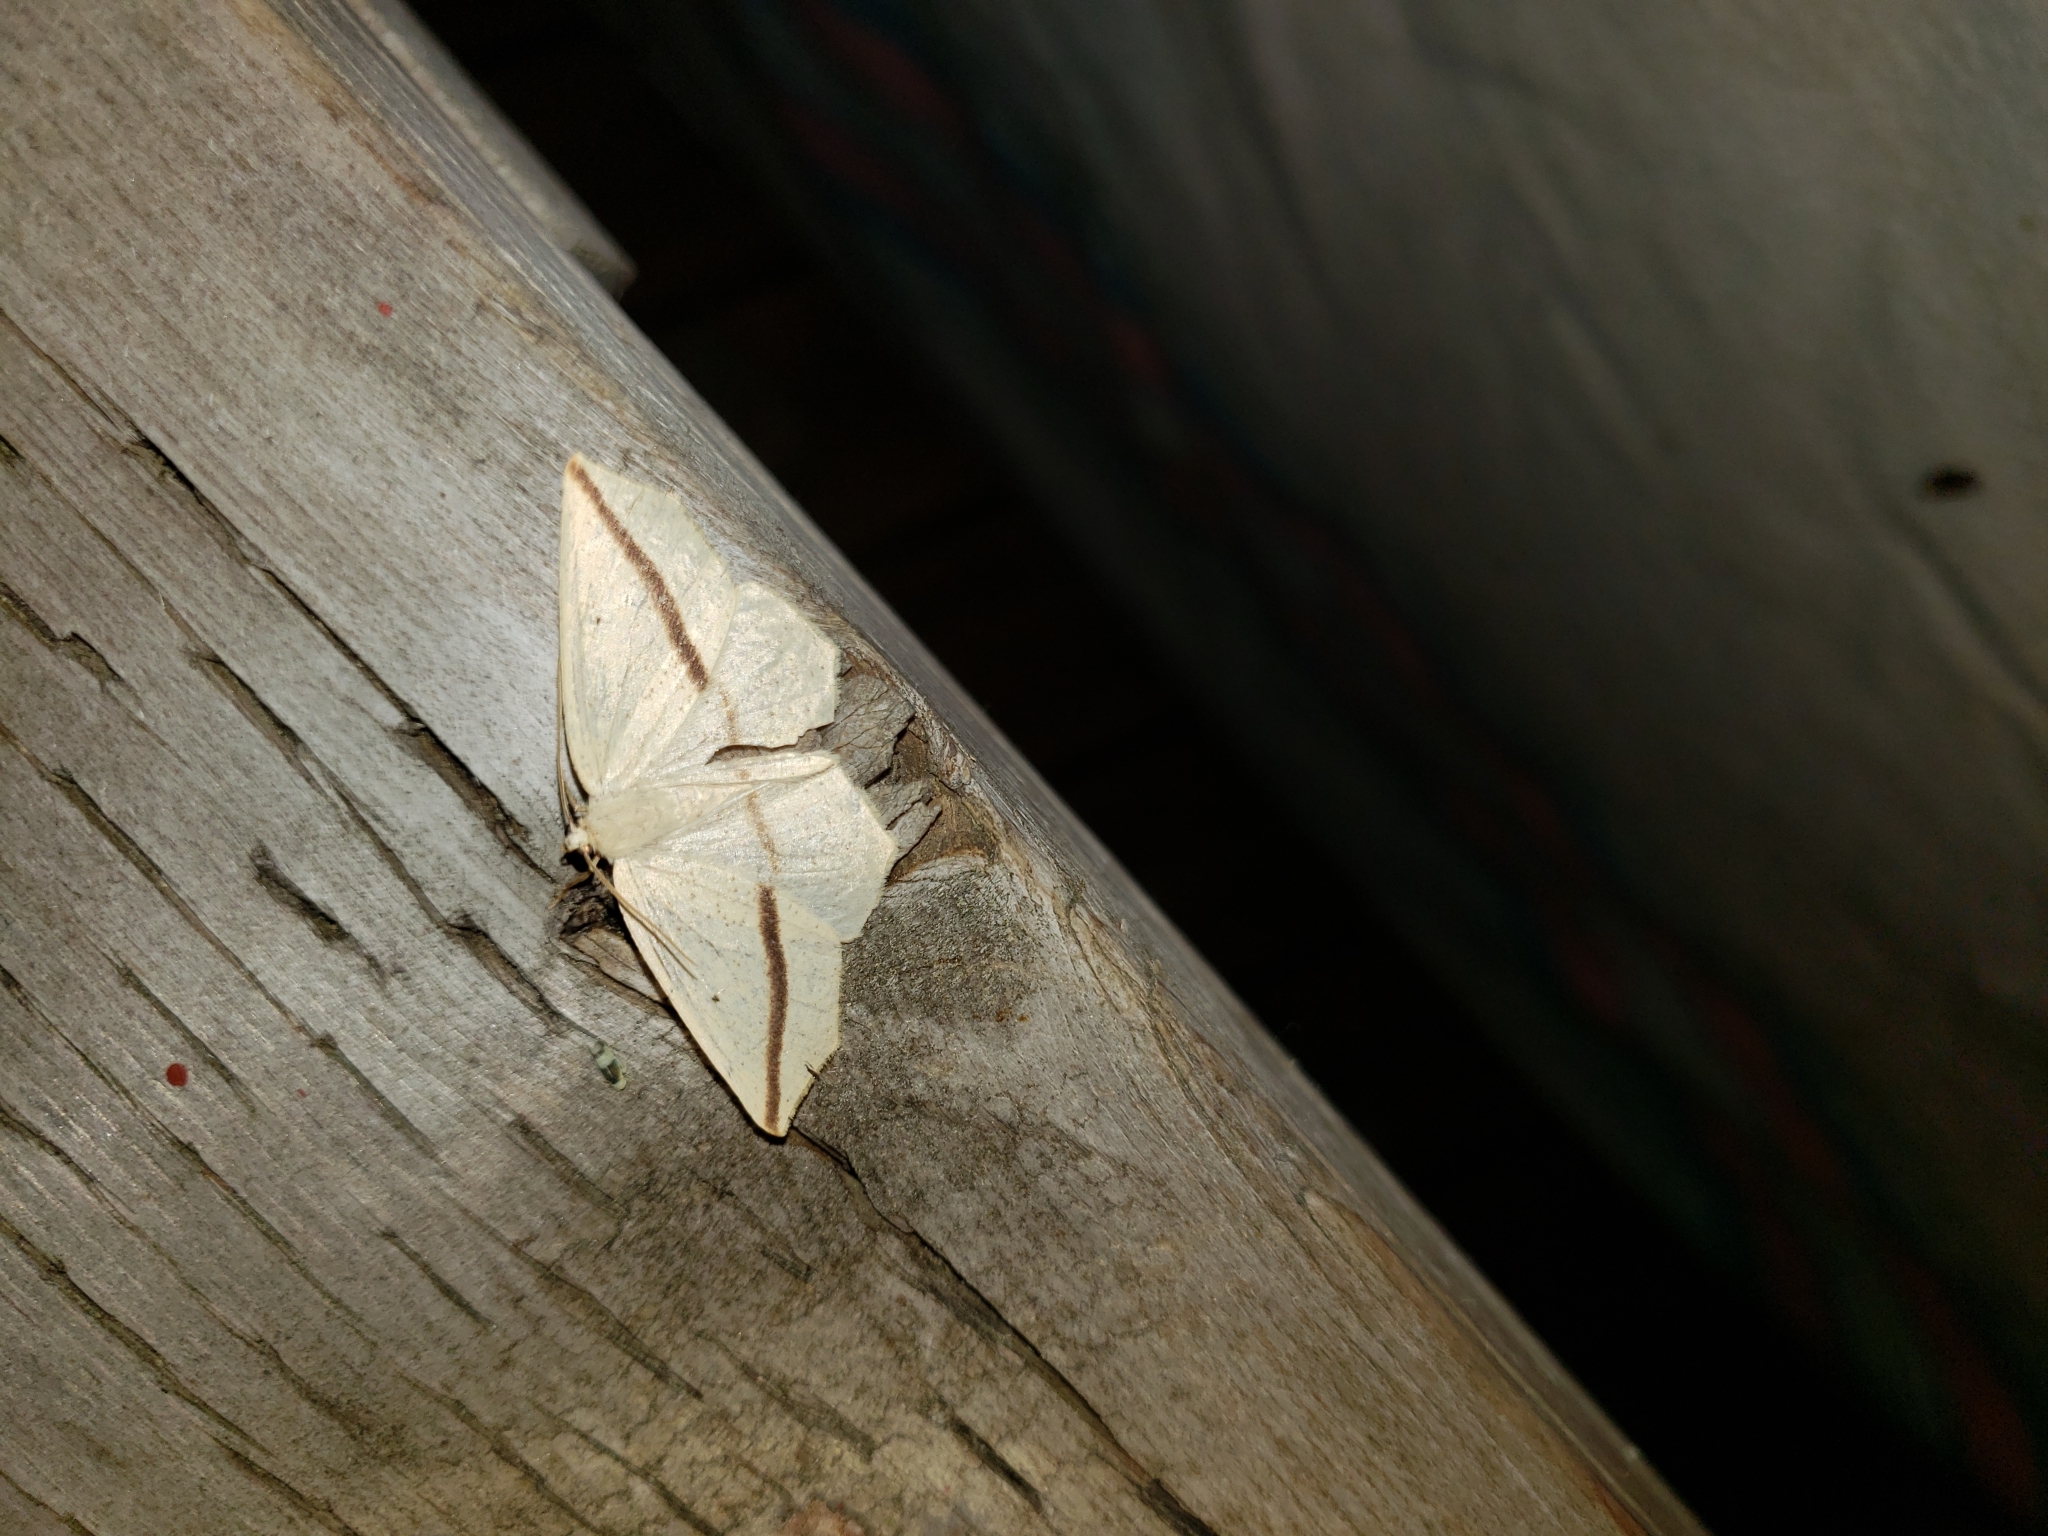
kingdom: Animalia
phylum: Arthropoda
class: Insecta
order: Lepidoptera
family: Geometridae
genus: Tetracis
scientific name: Tetracis crocallata
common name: Yellow slant-line
